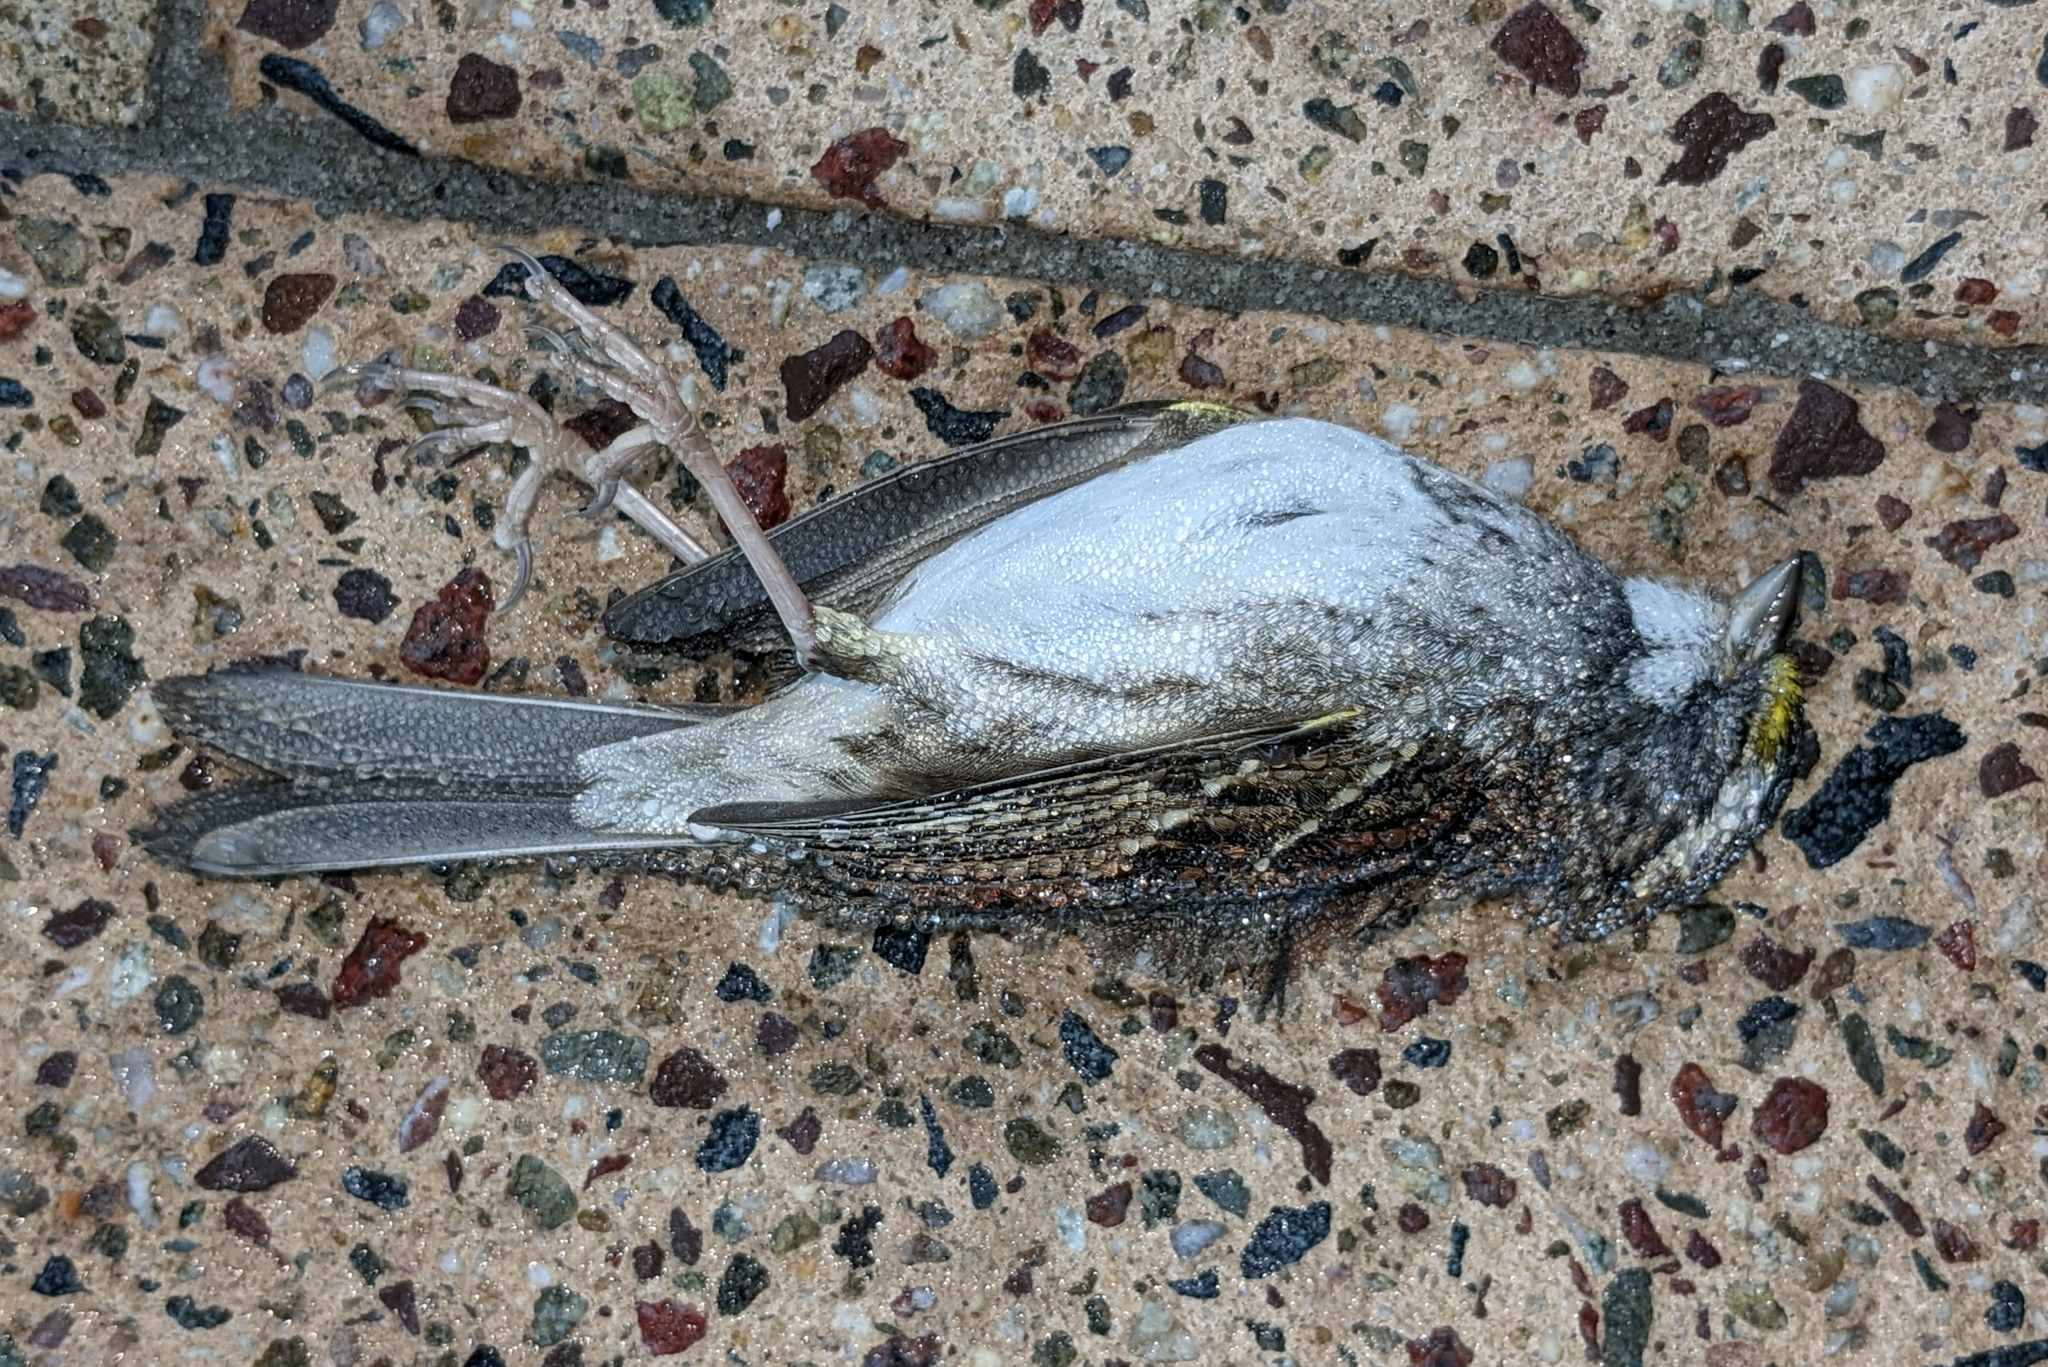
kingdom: Animalia
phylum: Chordata
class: Aves
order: Passeriformes
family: Passerellidae
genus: Zonotrichia
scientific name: Zonotrichia albicollis
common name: White-throated sparrow
